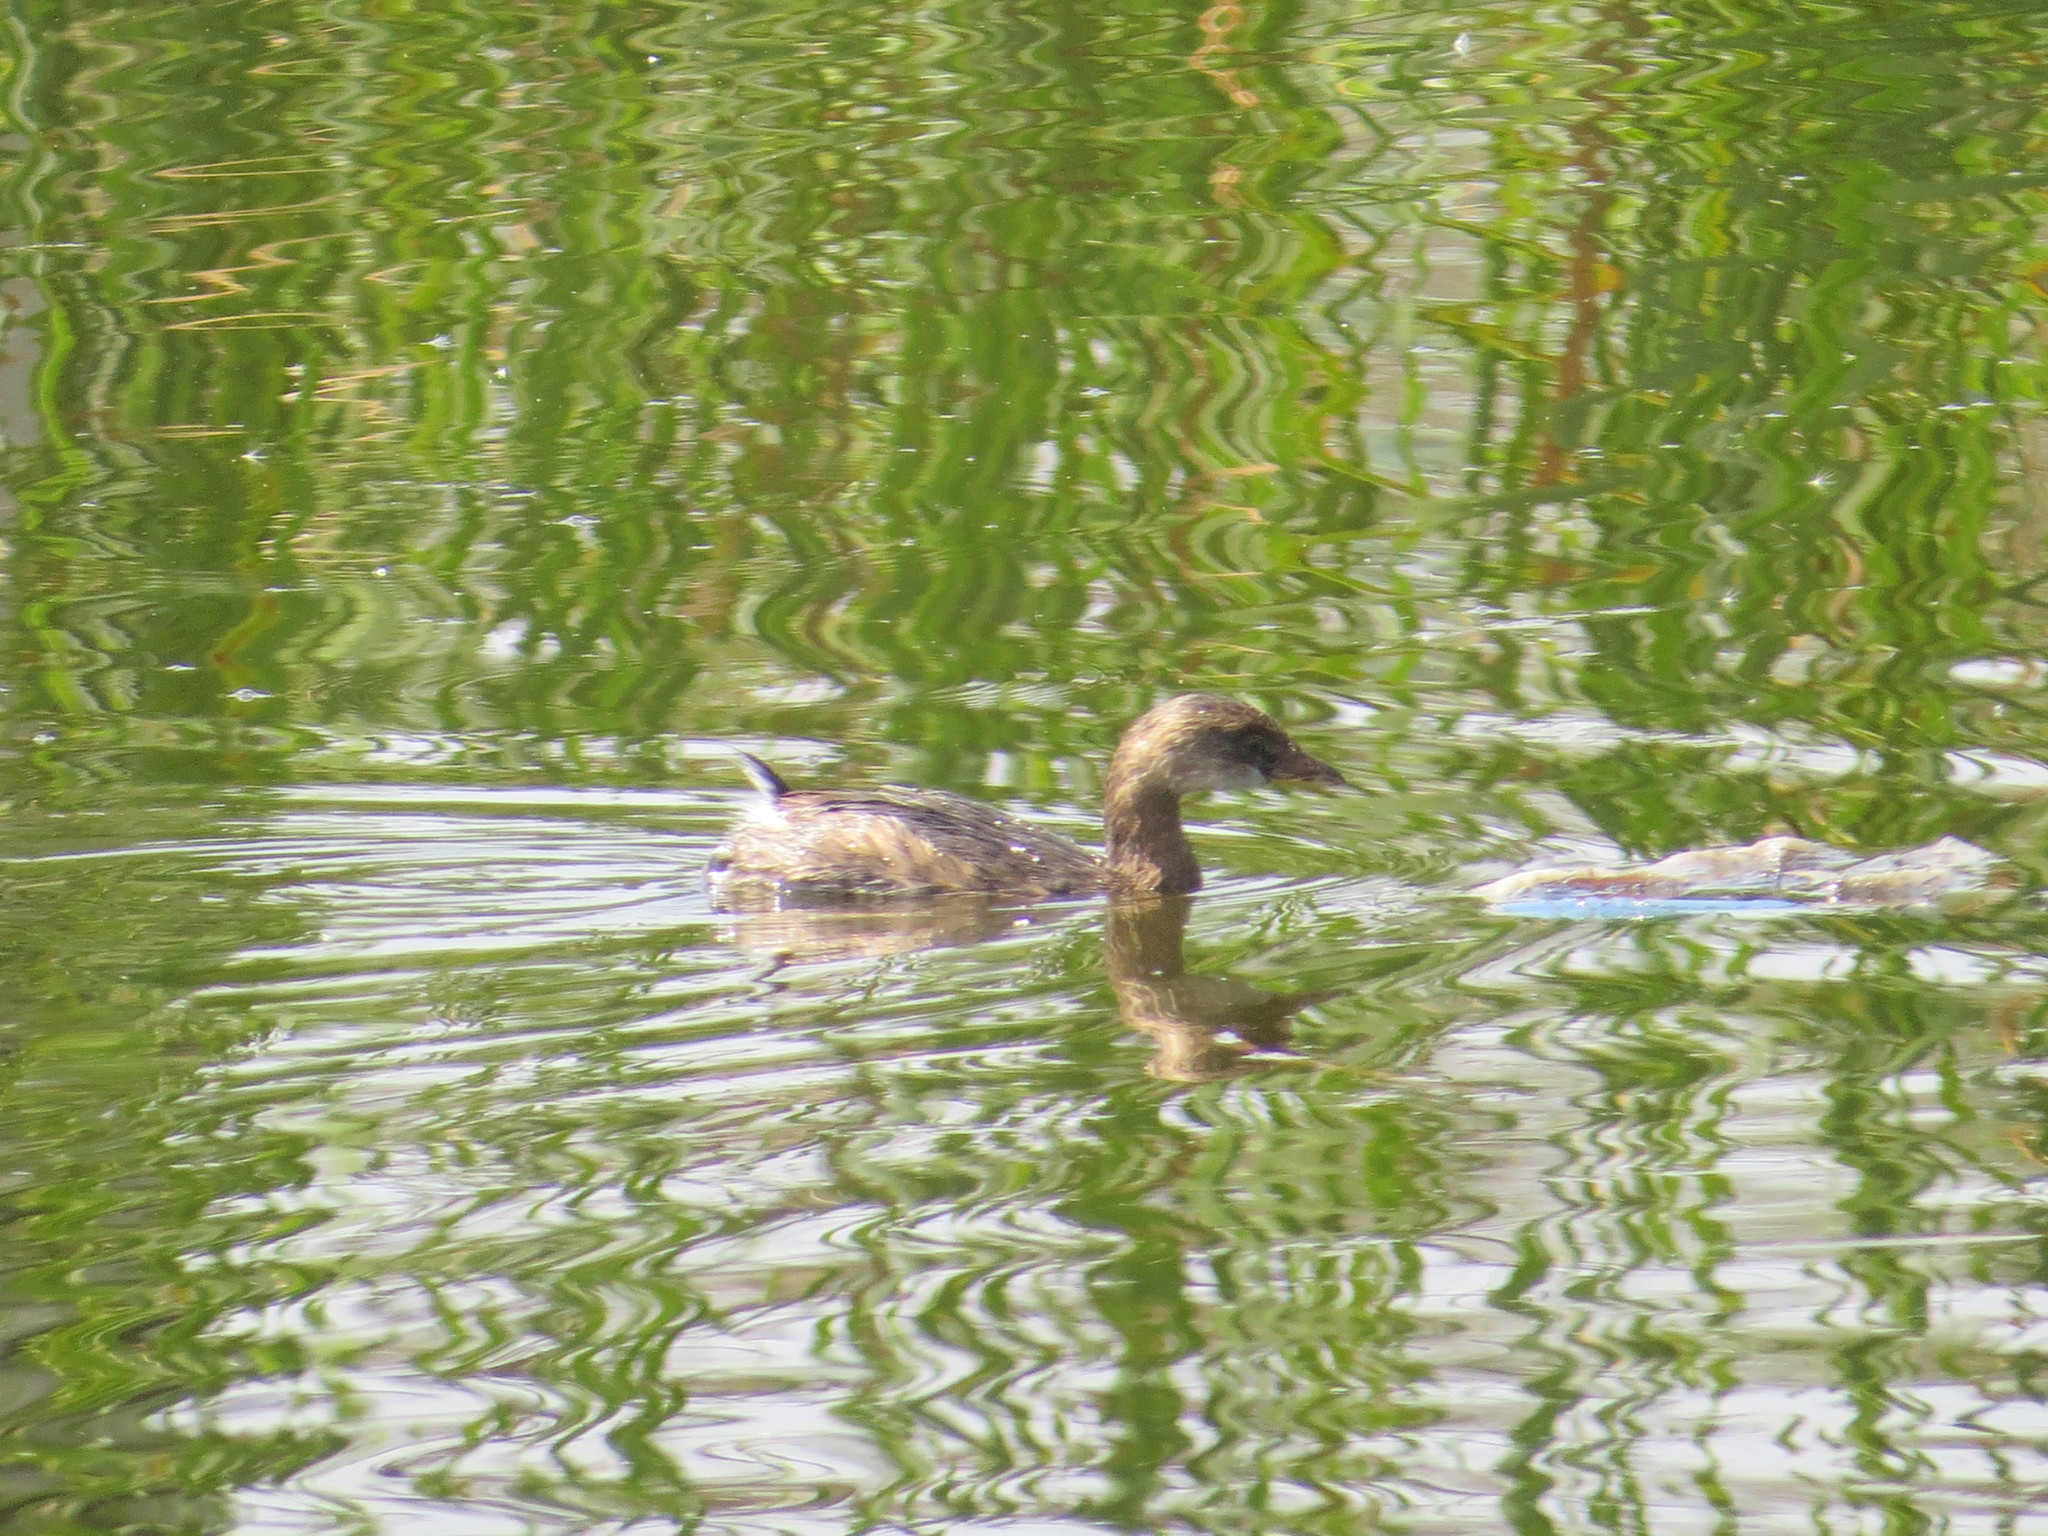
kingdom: Animalia
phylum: Chordata
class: Aves
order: Podicipediformes
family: Podicipedidae
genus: Podilymbus
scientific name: Podilymbus podiceps
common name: Pied-billed grebe
